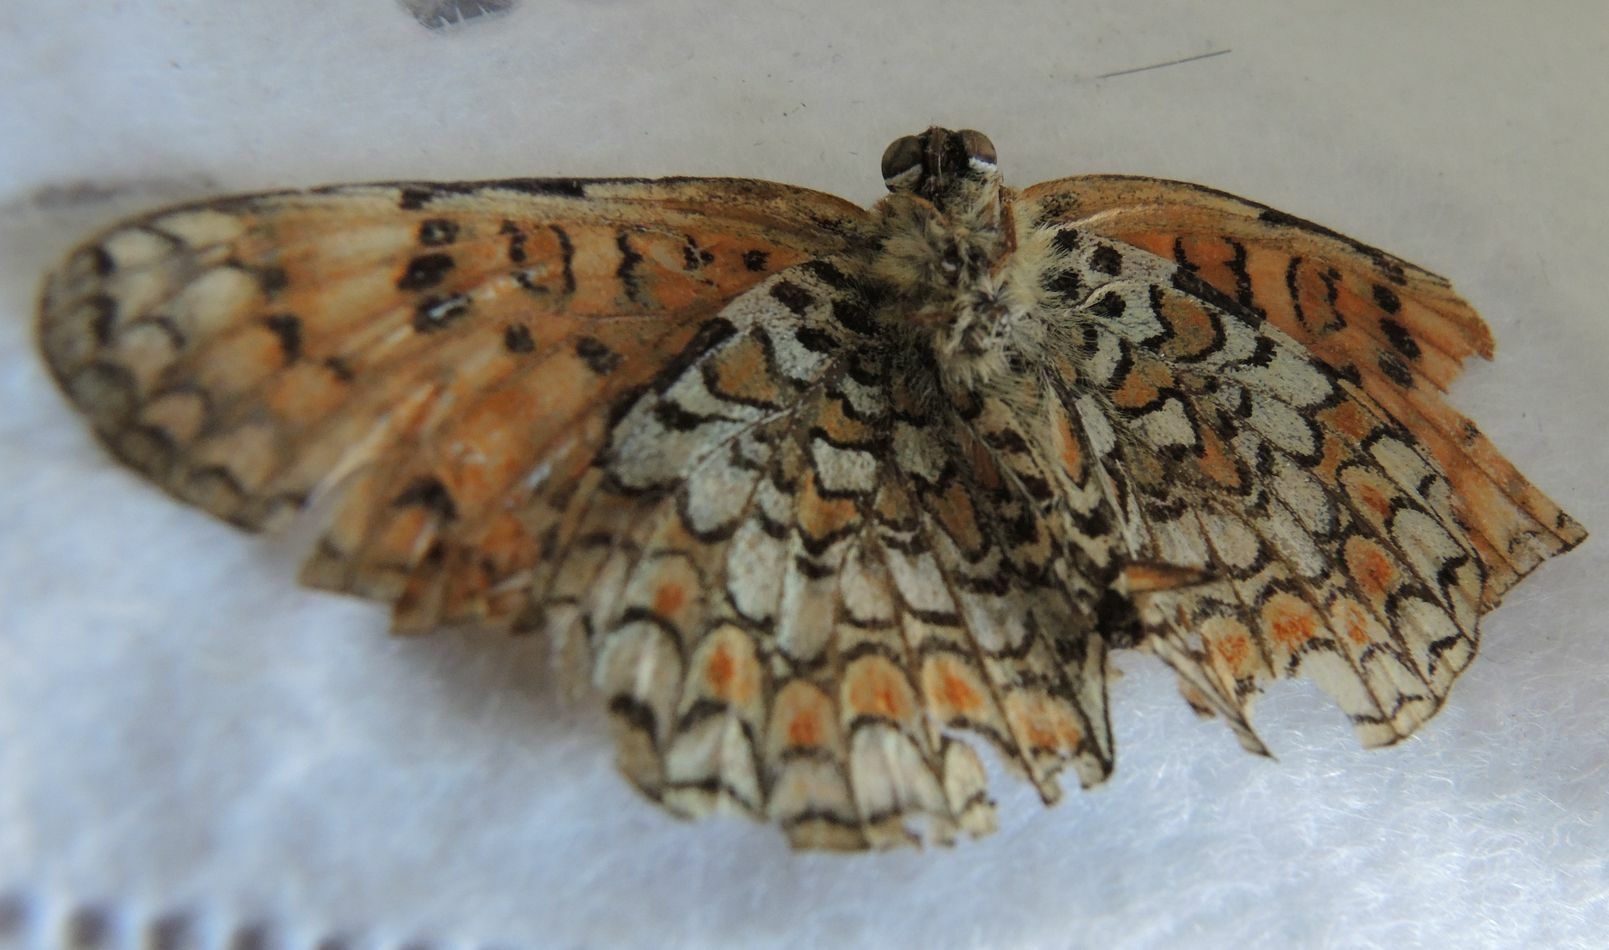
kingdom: Animalia
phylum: Arthropoda
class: Insecta
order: Lepidoptera
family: Nymphalidae
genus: Melitaea
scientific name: Melitaea phoebe
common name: Knapweed fritillary
